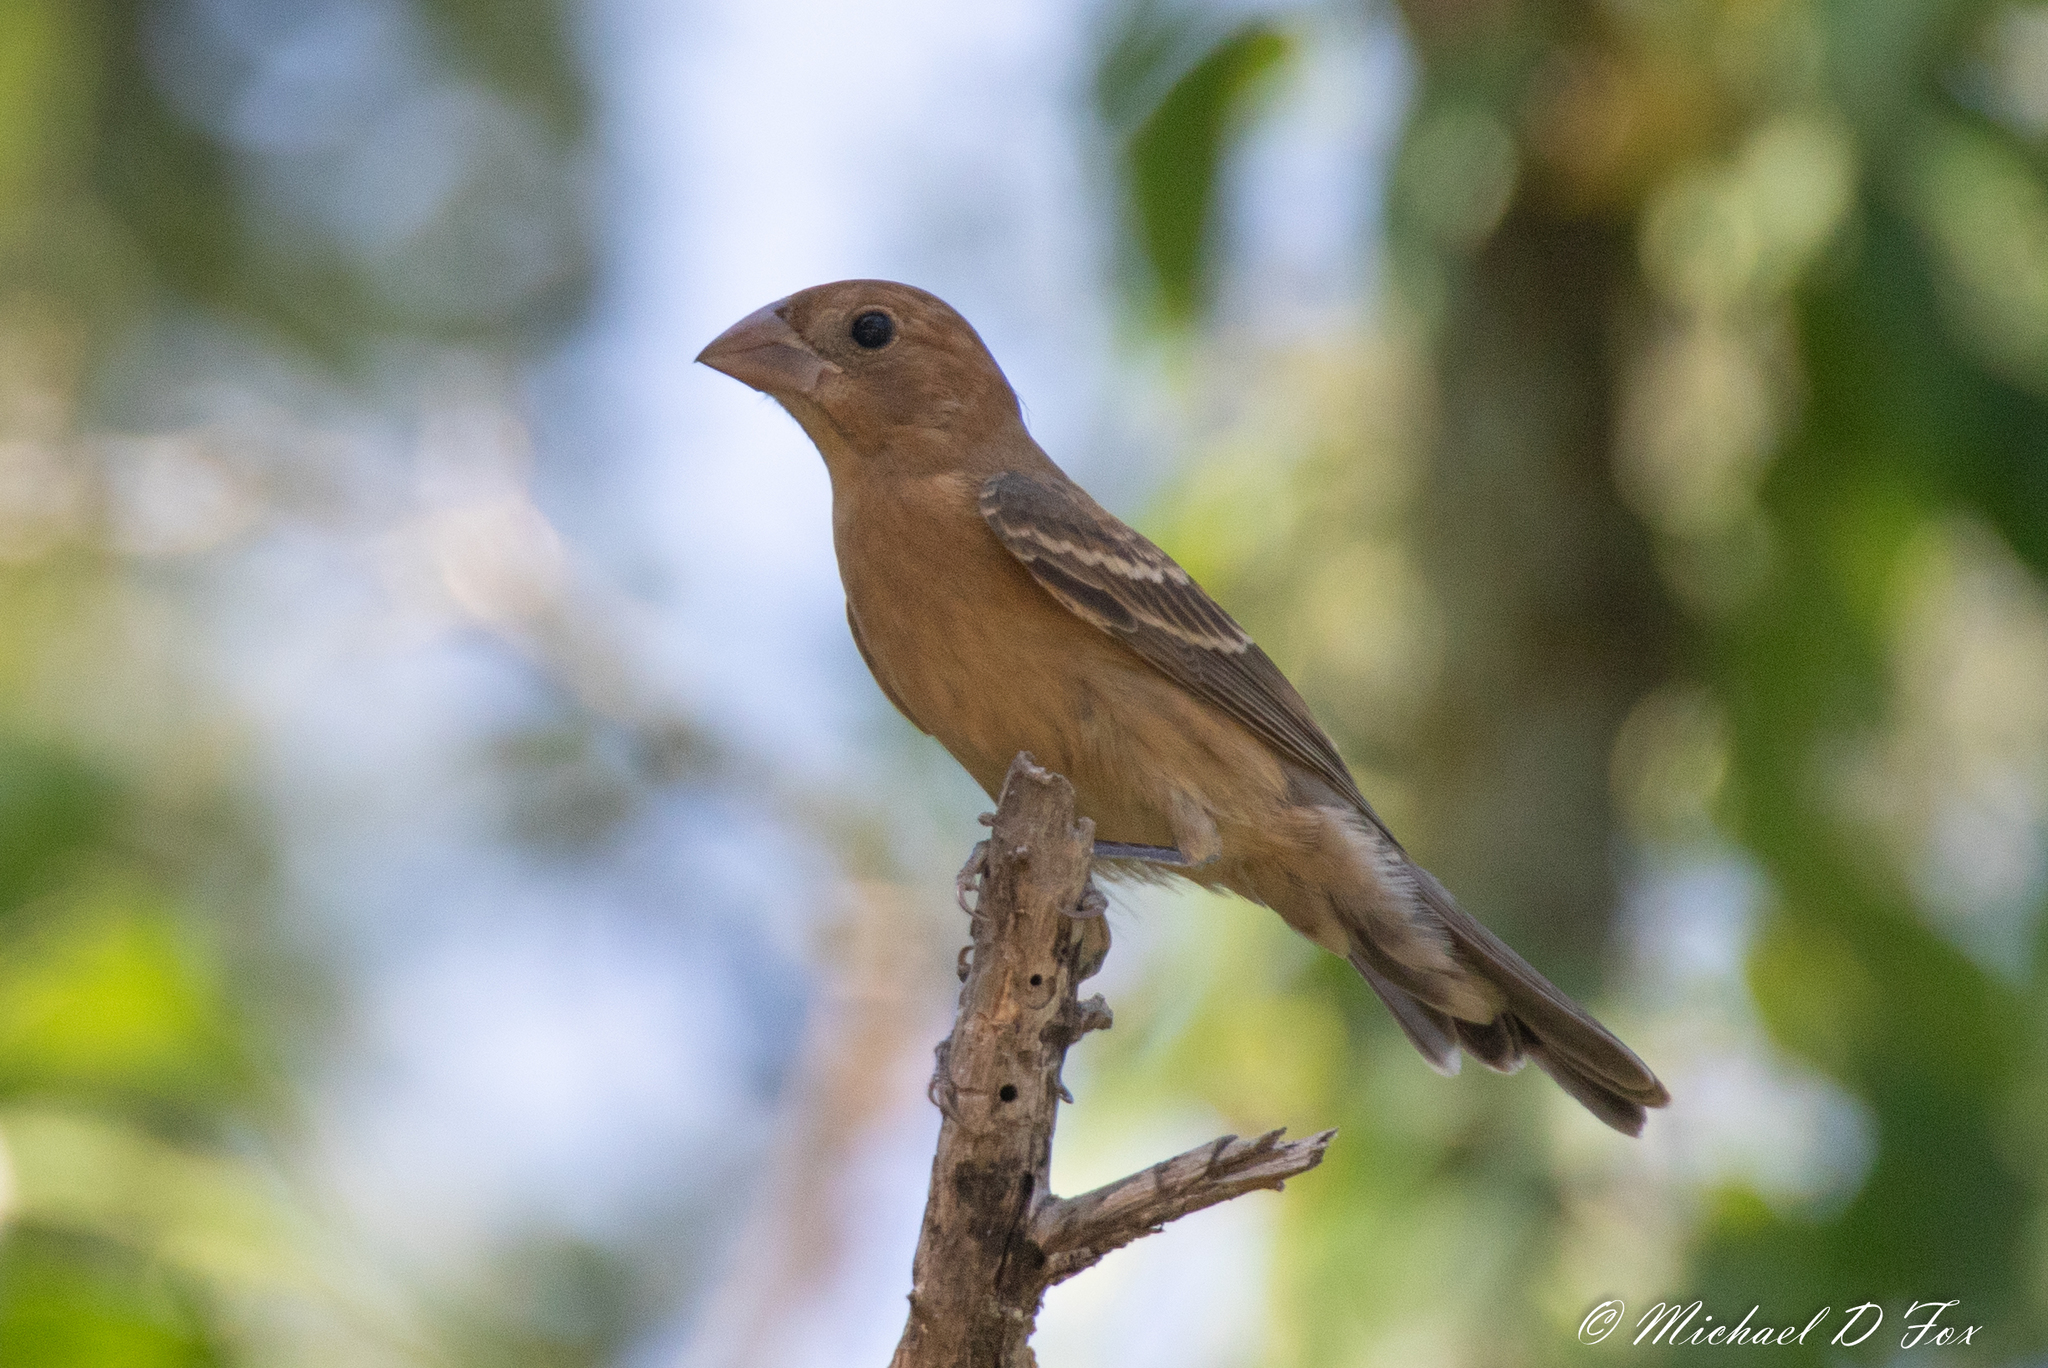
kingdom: Animalia
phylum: Chordata
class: Aves
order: Passeriformes
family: Cardinalidae
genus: Passerina
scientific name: Passerina caerulea
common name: Blue grosbeak
